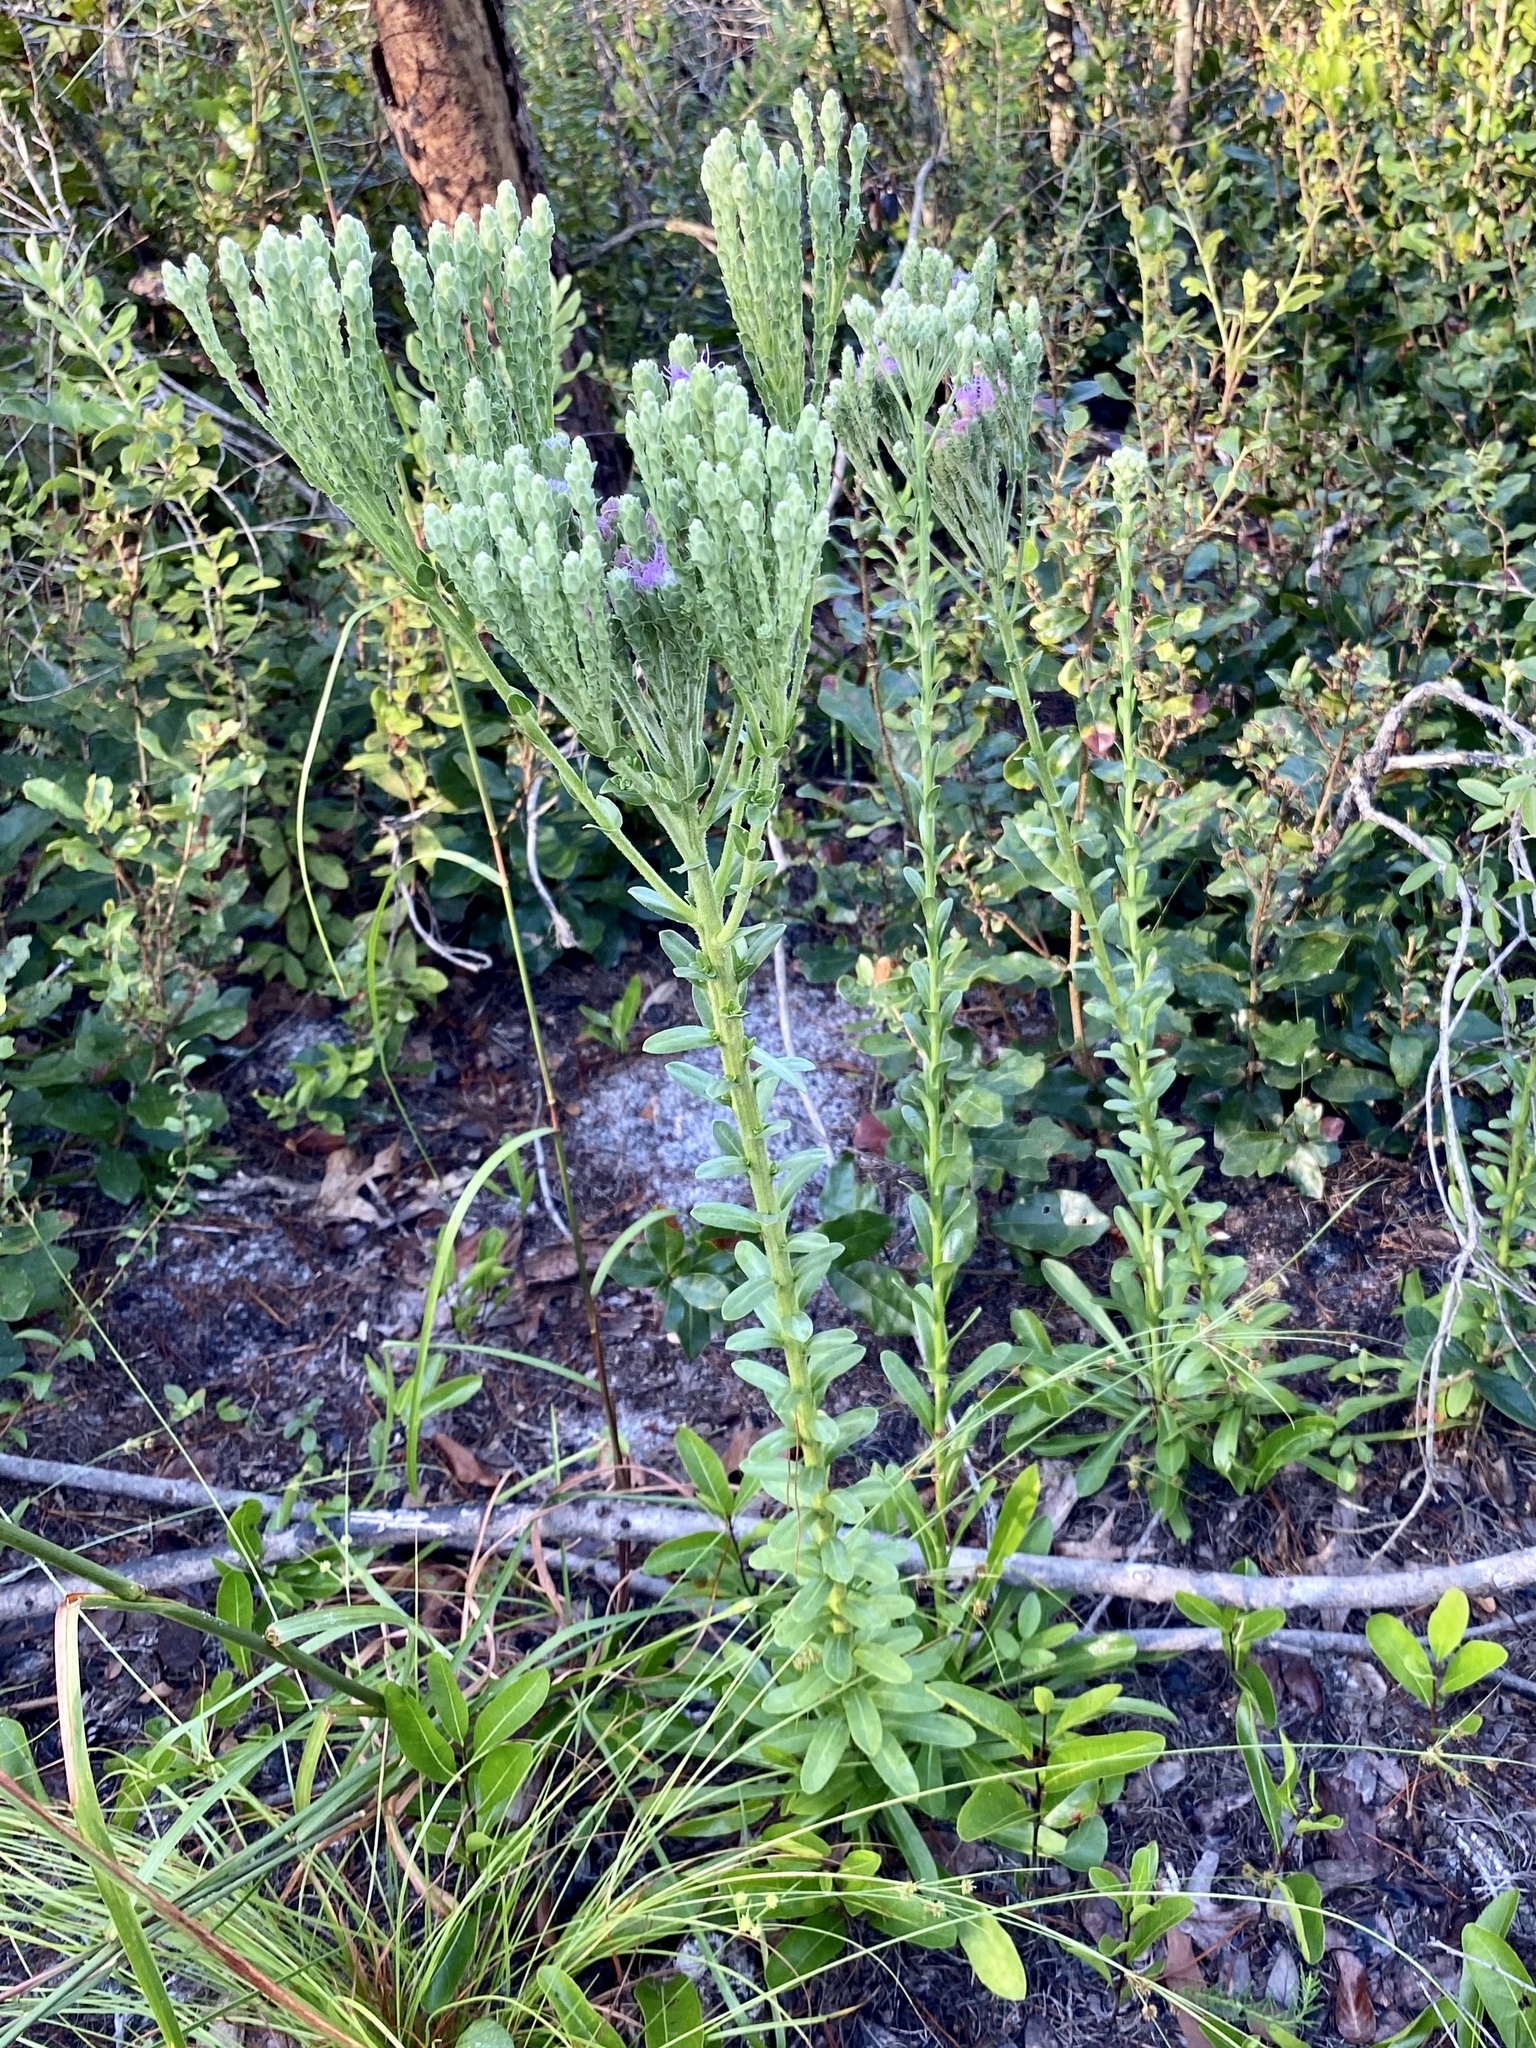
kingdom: Plantae
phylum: Tracheophyta
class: Magnoliopsida
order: Asterales
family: Asteraceae
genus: Carphephorus
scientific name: Carphephorus corymbosus
